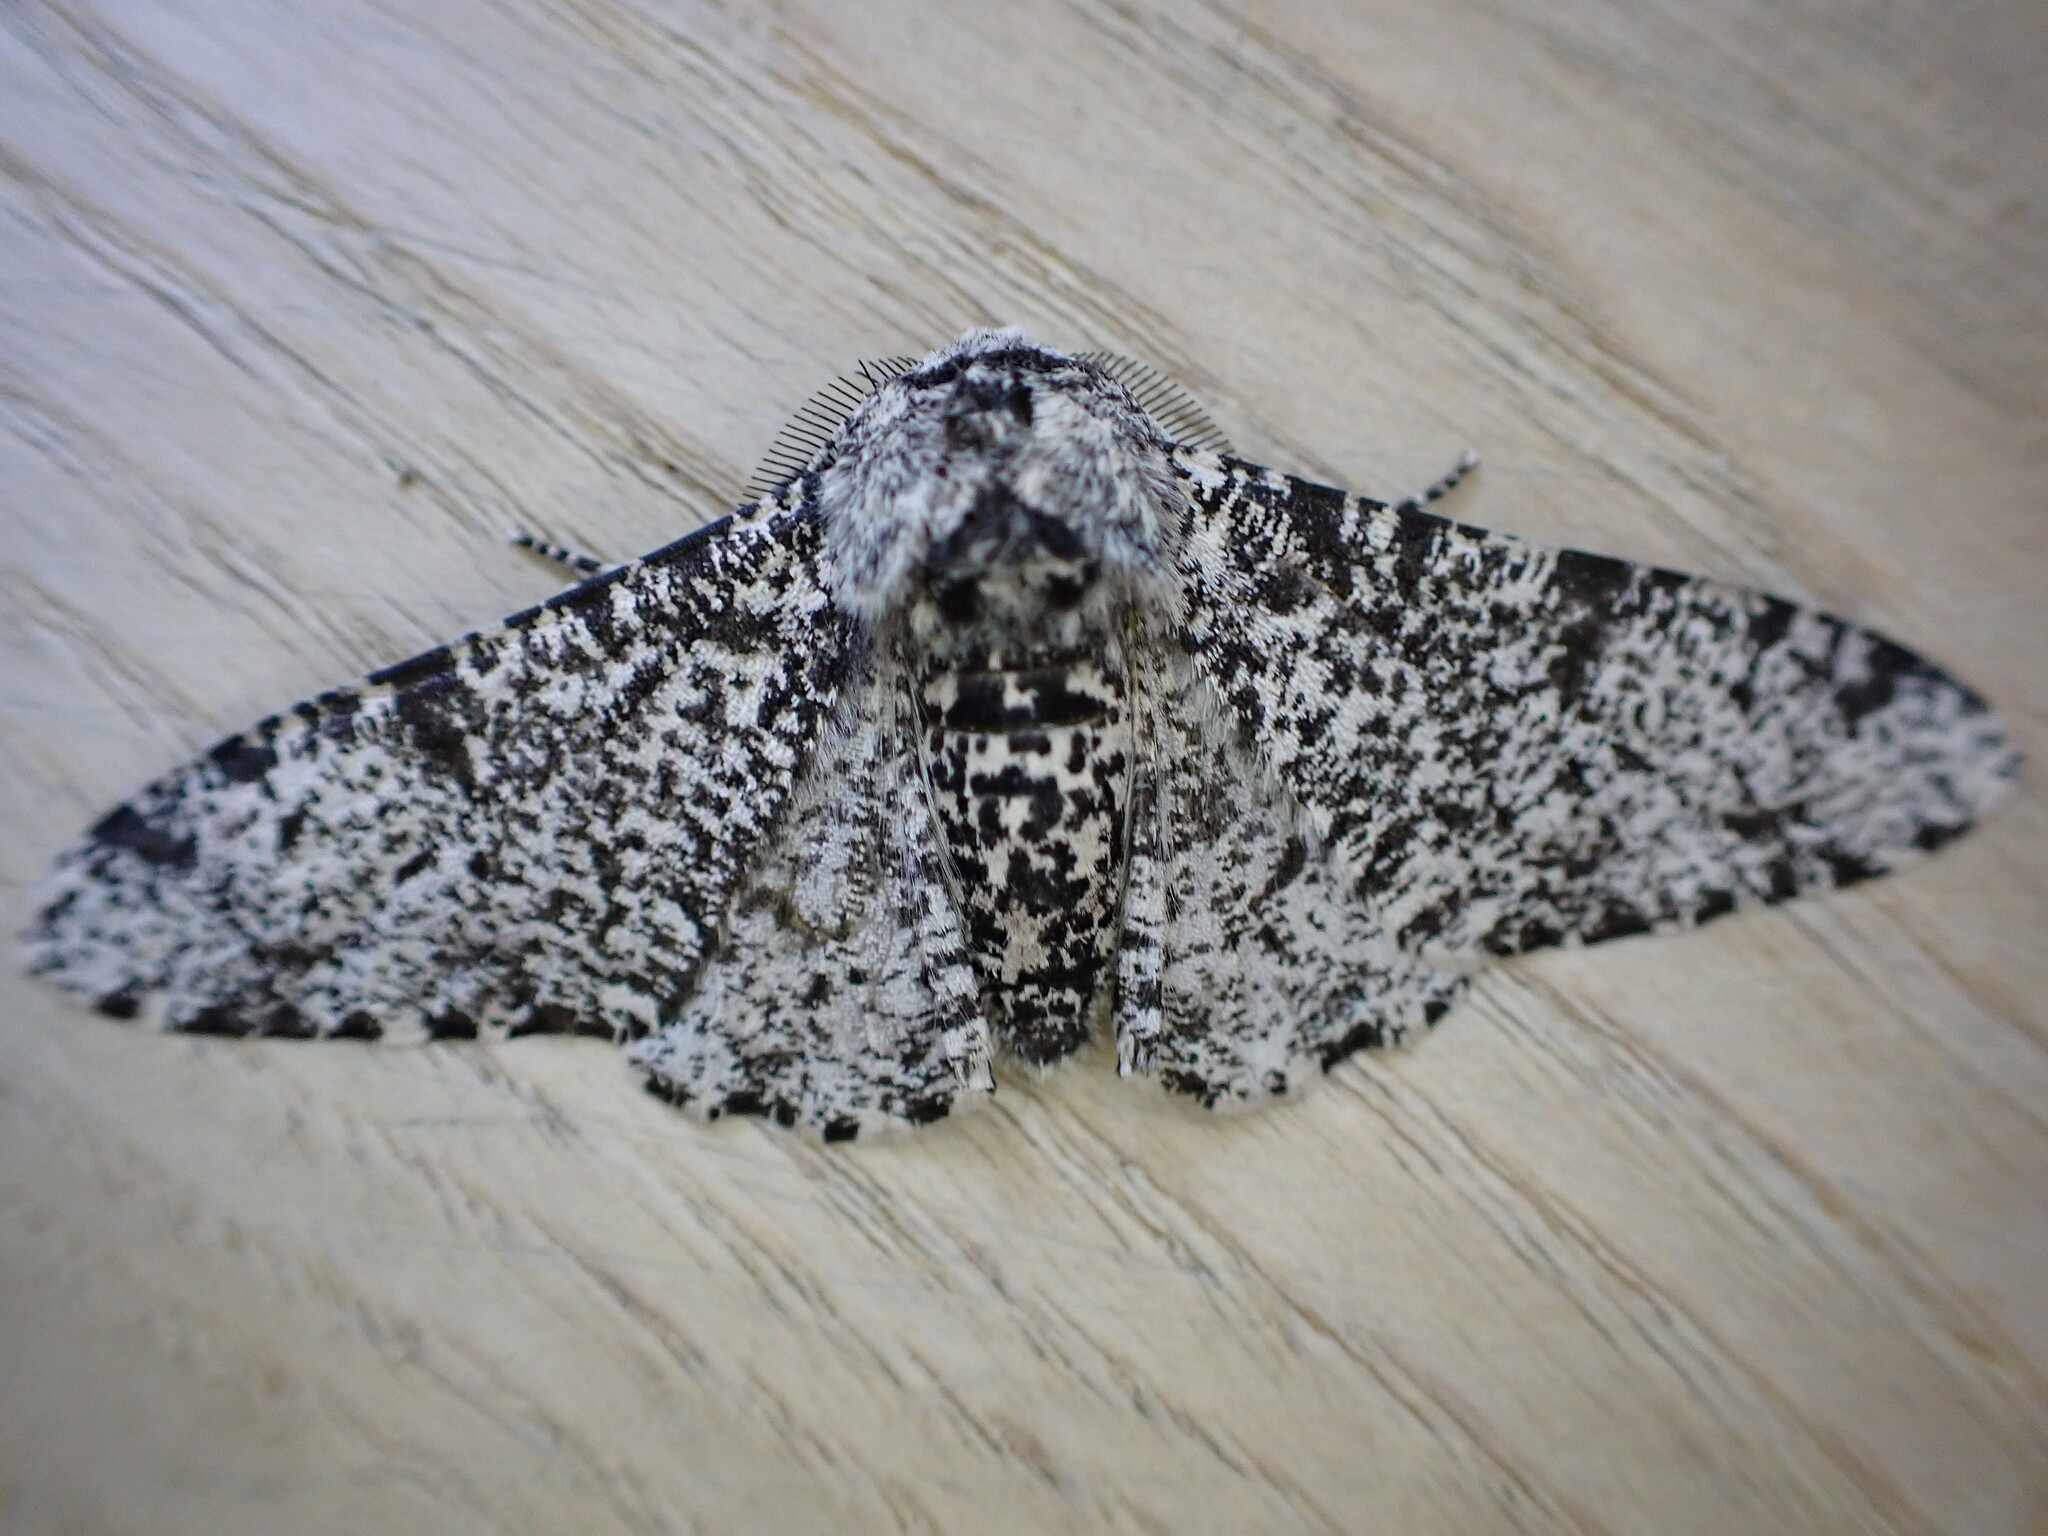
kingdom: Animalia
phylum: Arthropoda
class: Insecta
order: Lepidoptera
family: Geometridae
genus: Biston
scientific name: Biston betularia
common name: Peppered moth
